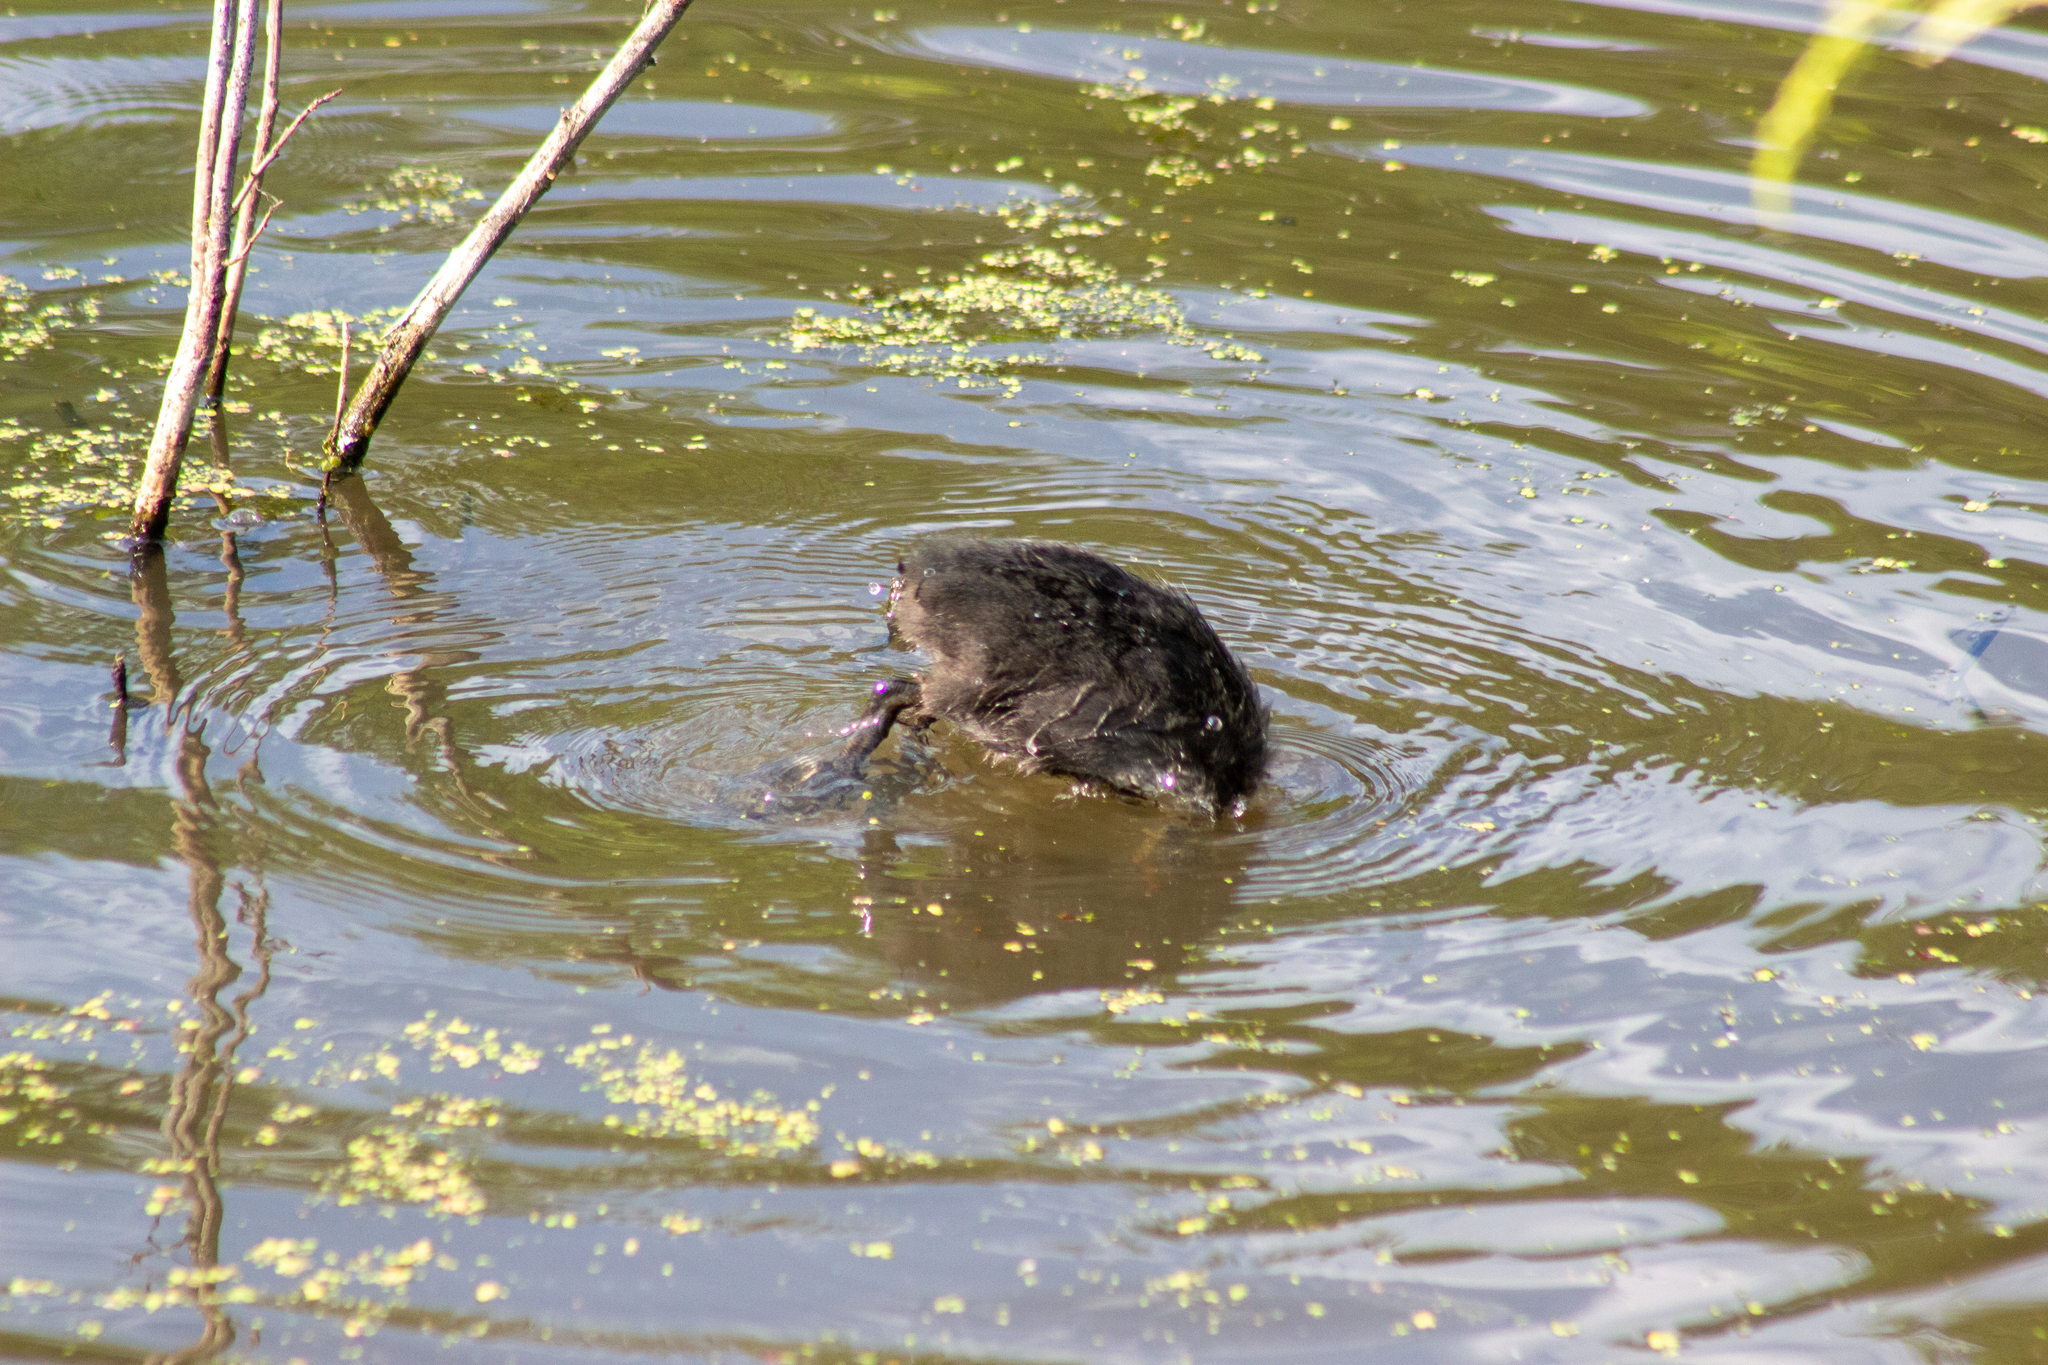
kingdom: Animalia
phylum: Chordata
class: Aves
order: Gruiformes
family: Rallidae
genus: Fulica
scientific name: Fulica atra
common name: Eurasian coot
